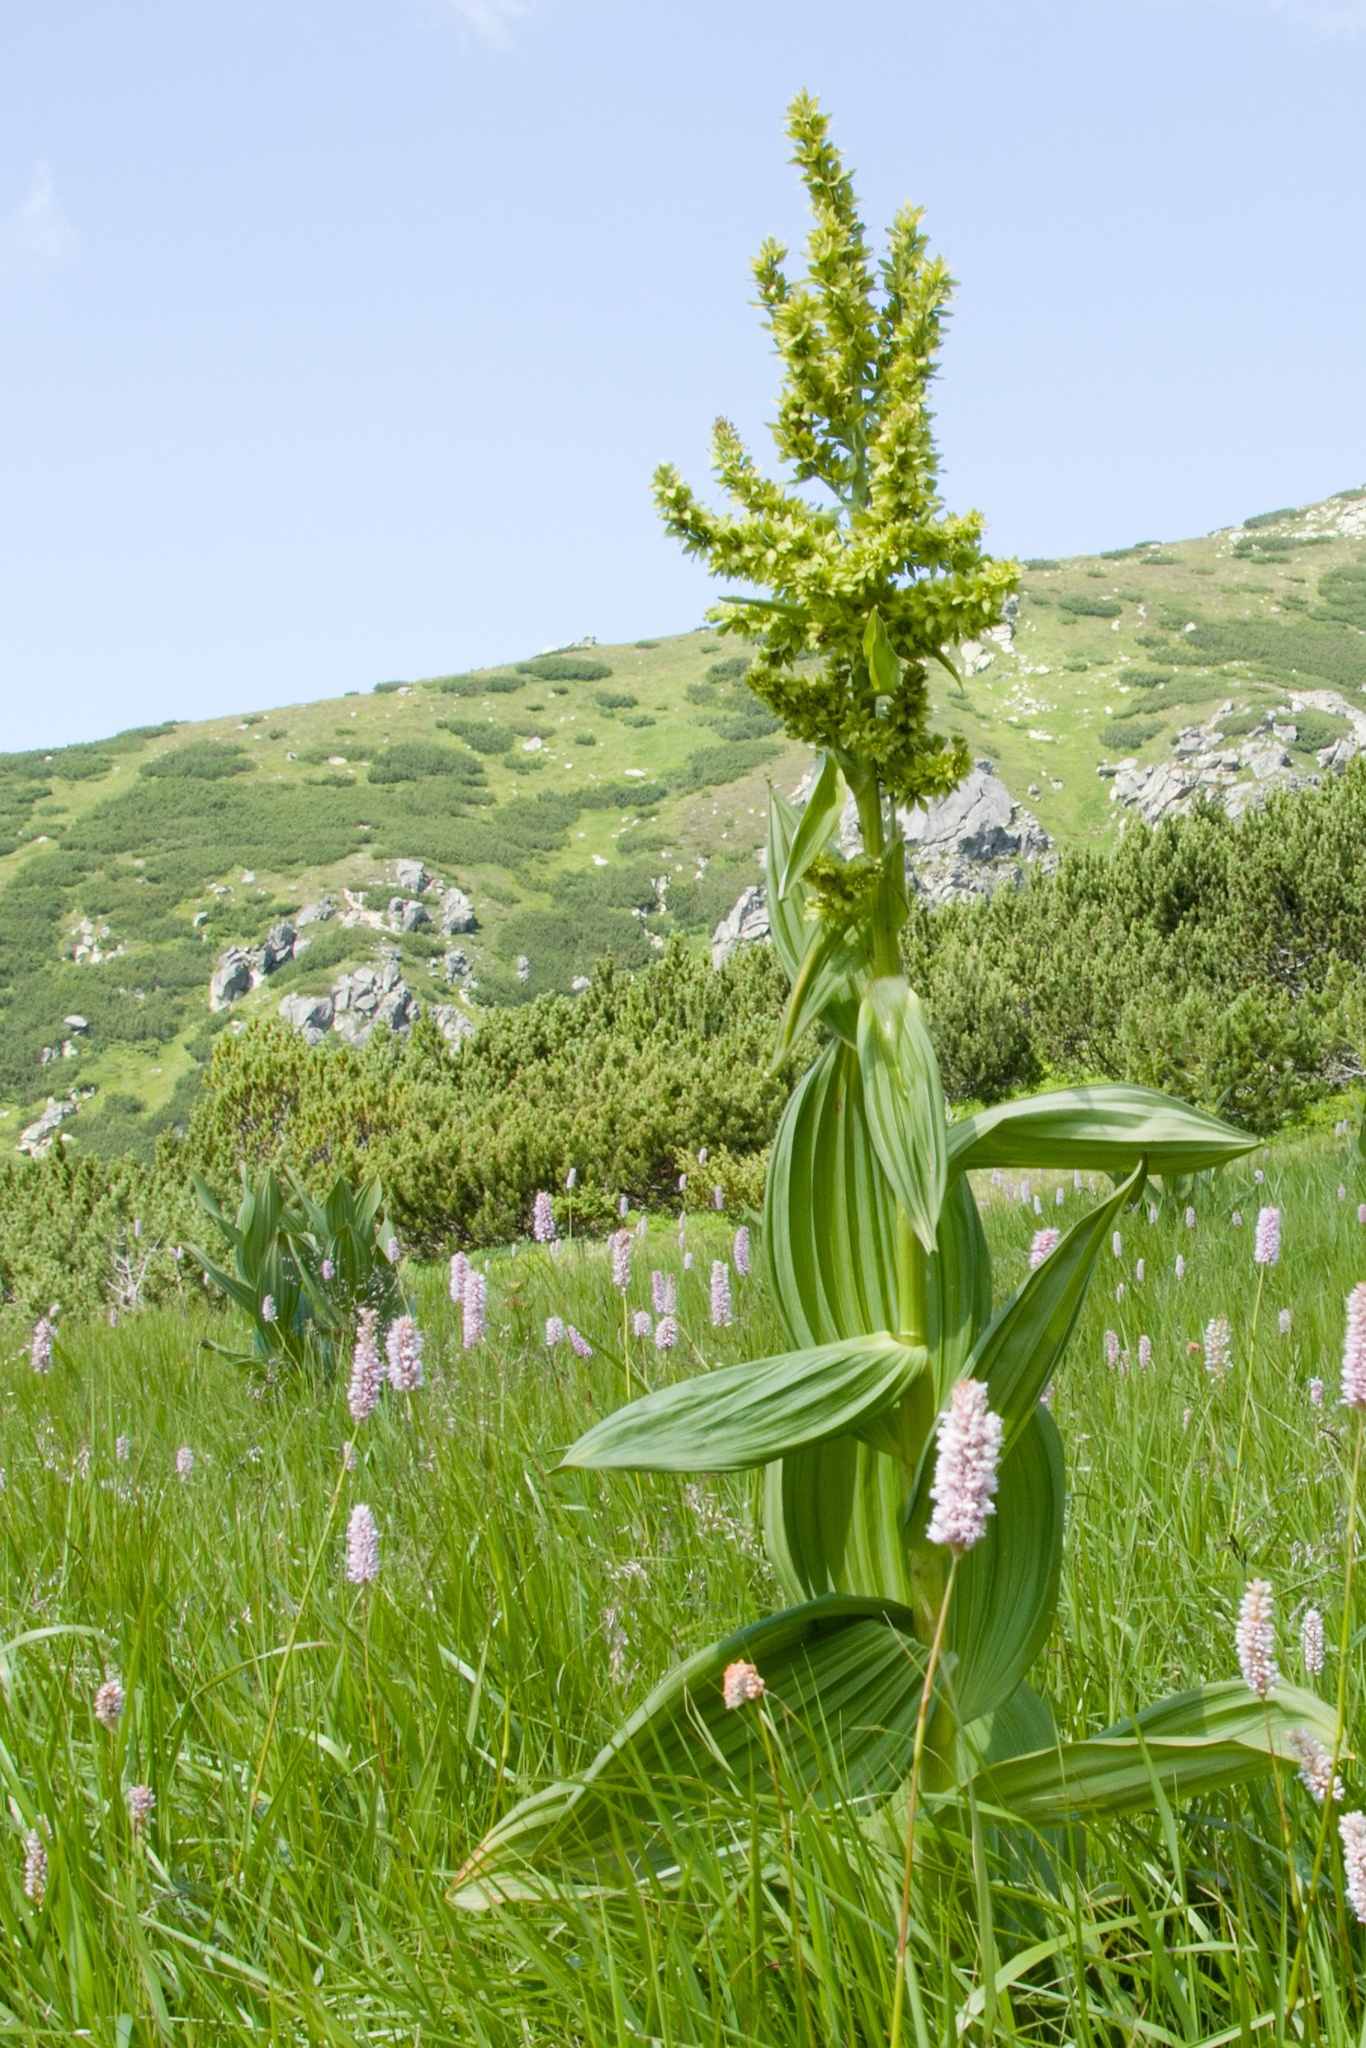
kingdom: Plantae
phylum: Tracheophyta
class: Liliopsida
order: Liliales
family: Melanthiaceae
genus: Veratrum
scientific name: Veratrum lobelianum
